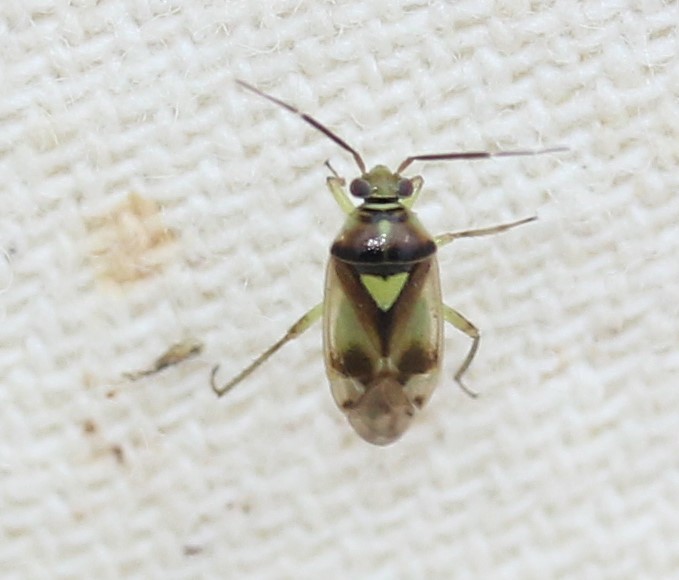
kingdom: Animalia
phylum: Arthropoda
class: Insecta
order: Hemiptera
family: Miridae
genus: Orthops
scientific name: Orthops scutellatus
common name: Plant bug
